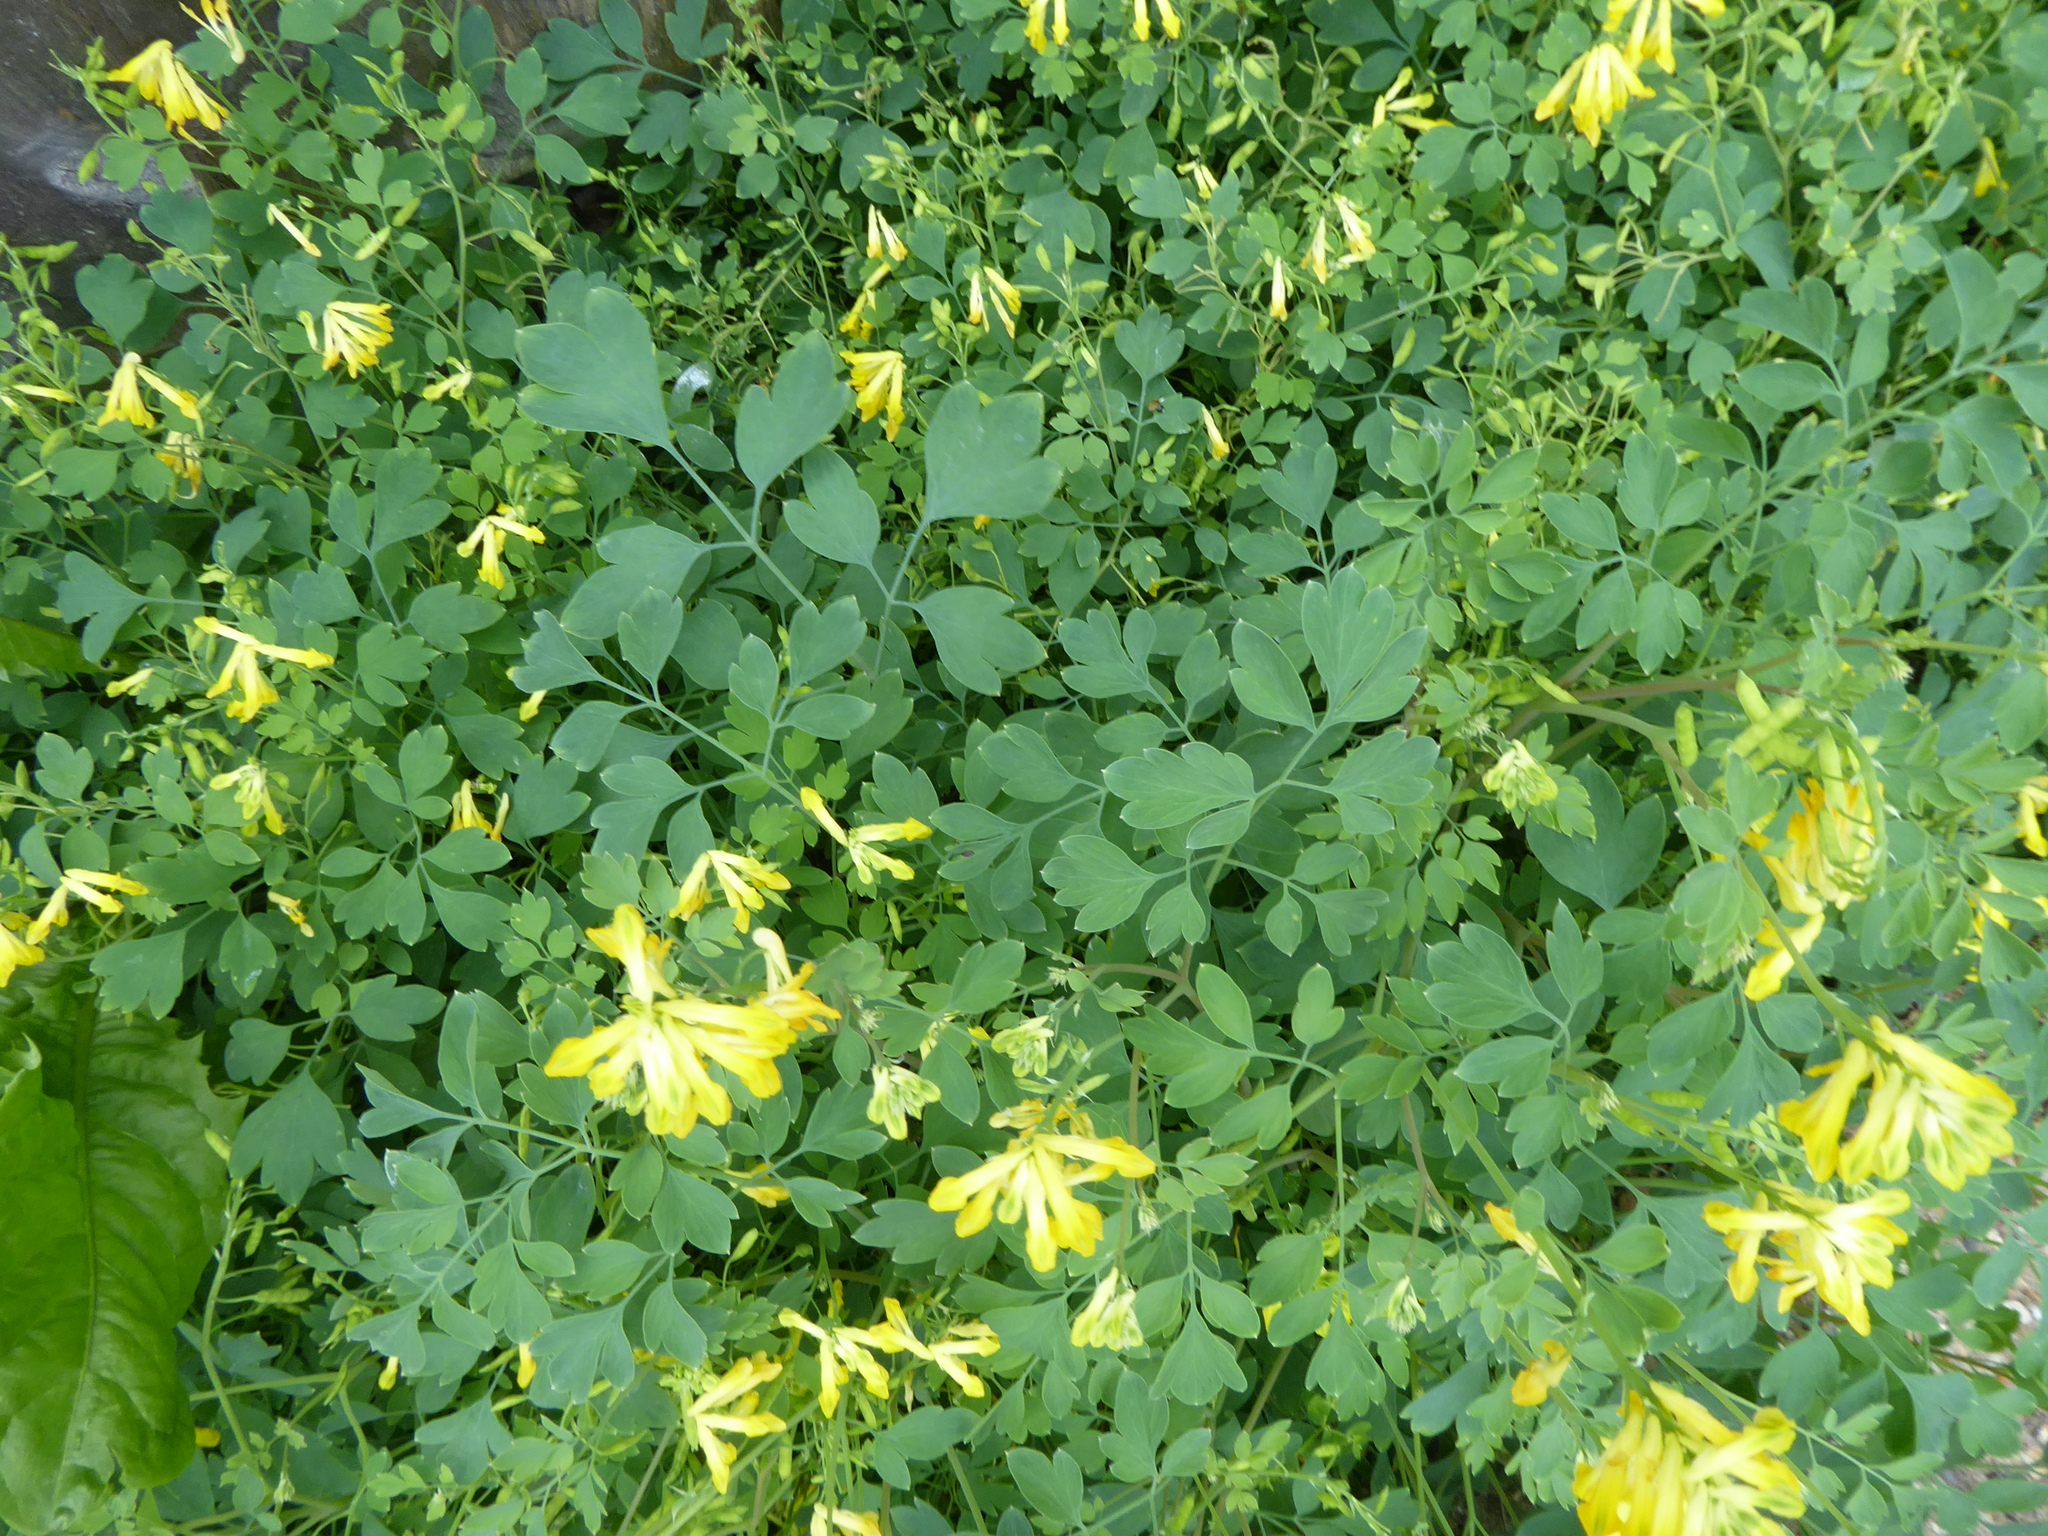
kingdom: Plantae
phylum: Tracheophyta
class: Magnoliopsida
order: Ranunculales
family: Papaveraceae
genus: Pseudofumaria
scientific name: Pseudofumaria lutea
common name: Yellow corydalis
